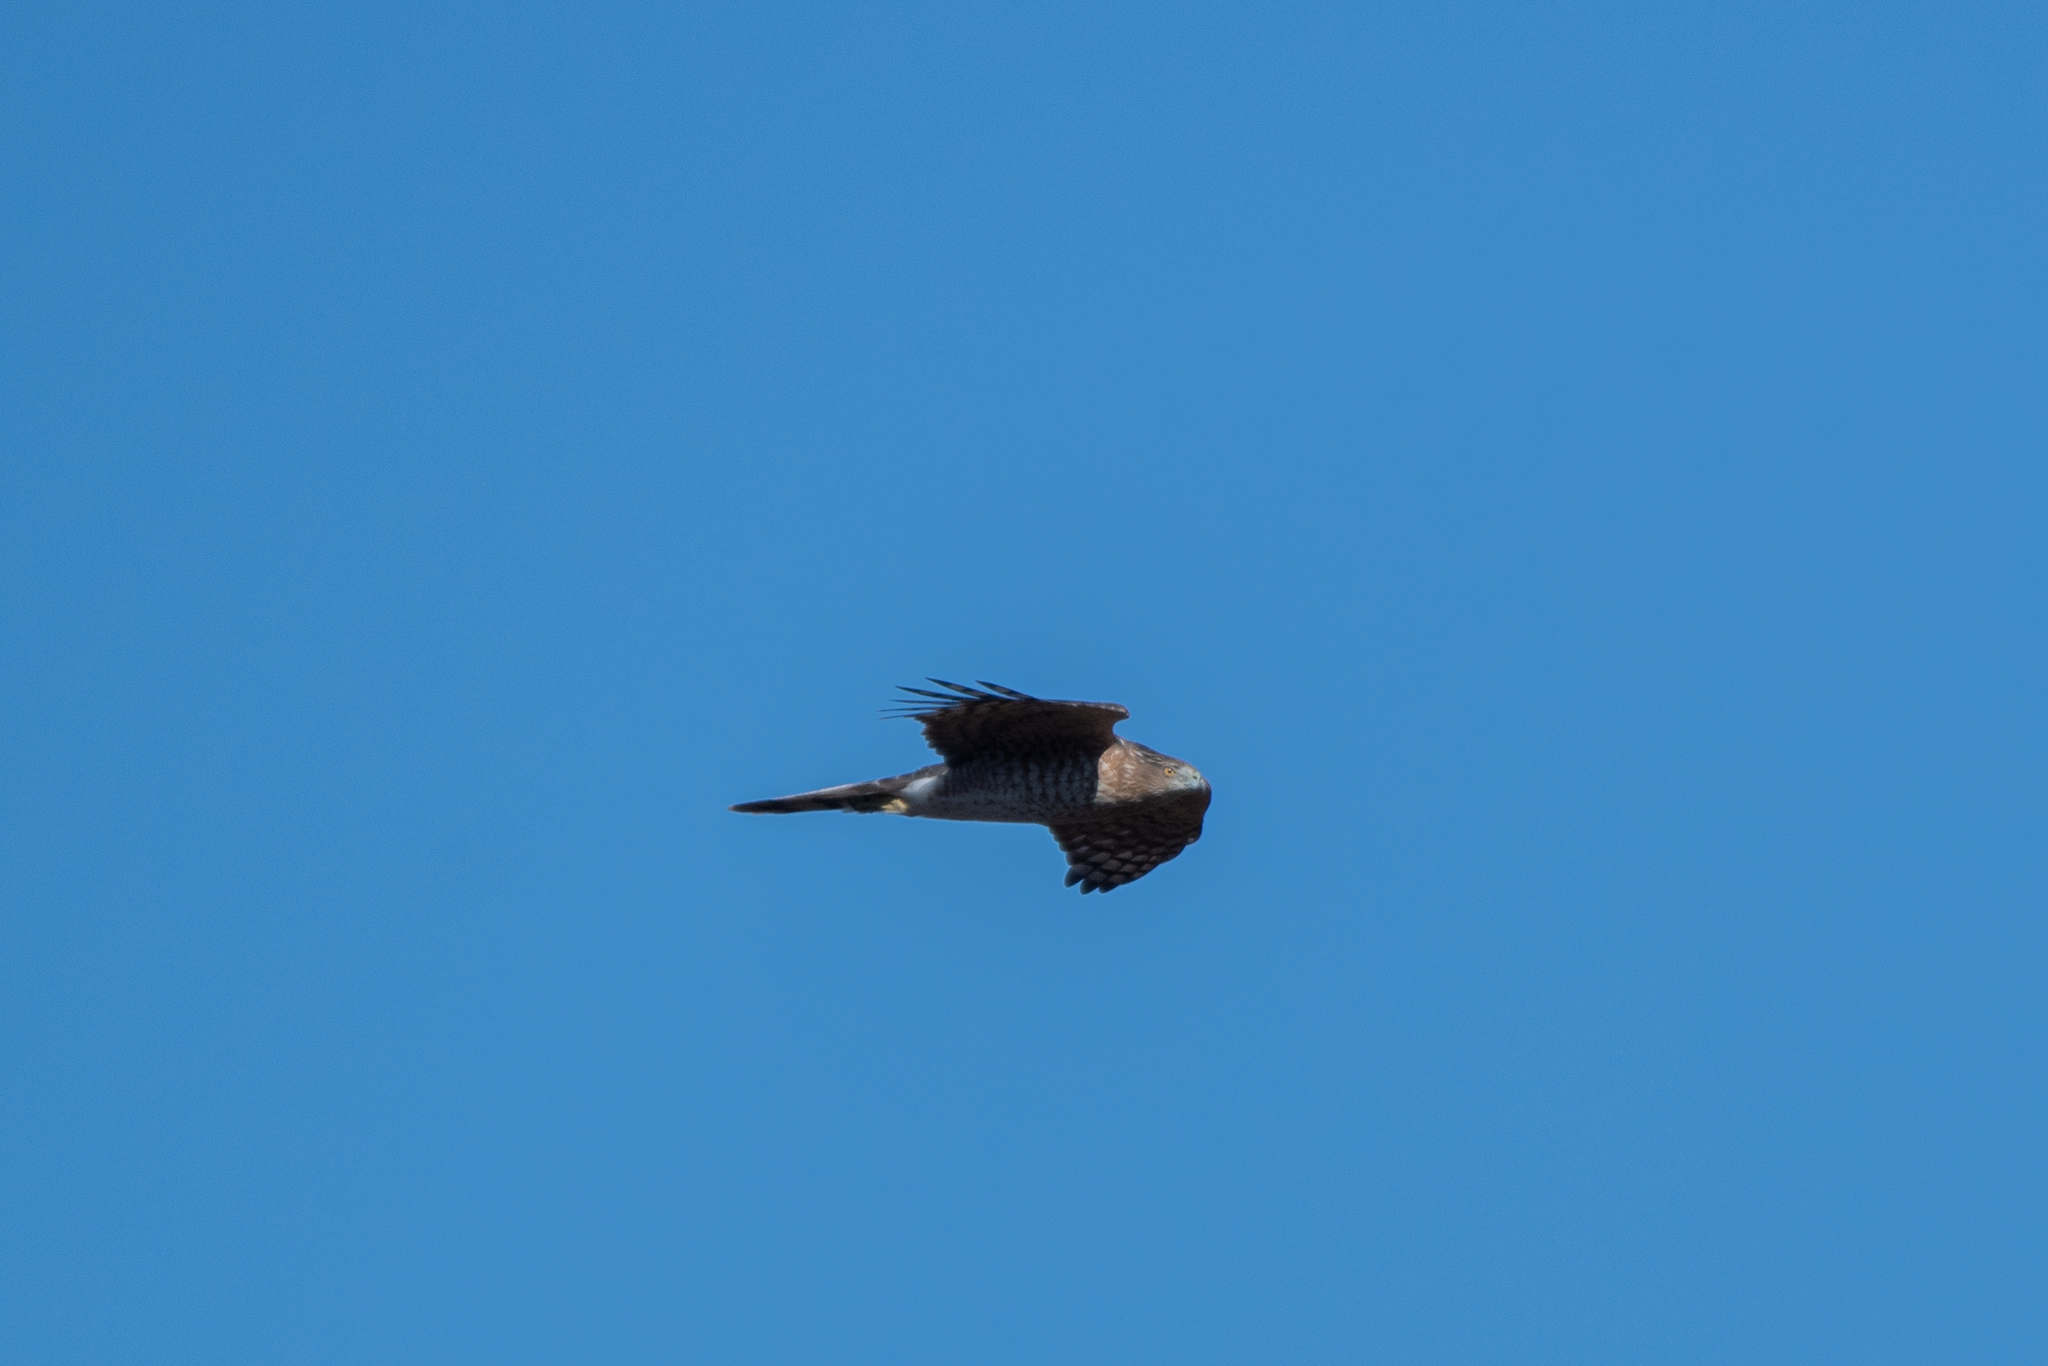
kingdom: Animalia
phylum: Chordata
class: Aves
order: Accipitriformes
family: Accipitridae
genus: Accipiter
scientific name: Accipiter cooperii
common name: Cooper's hawk
